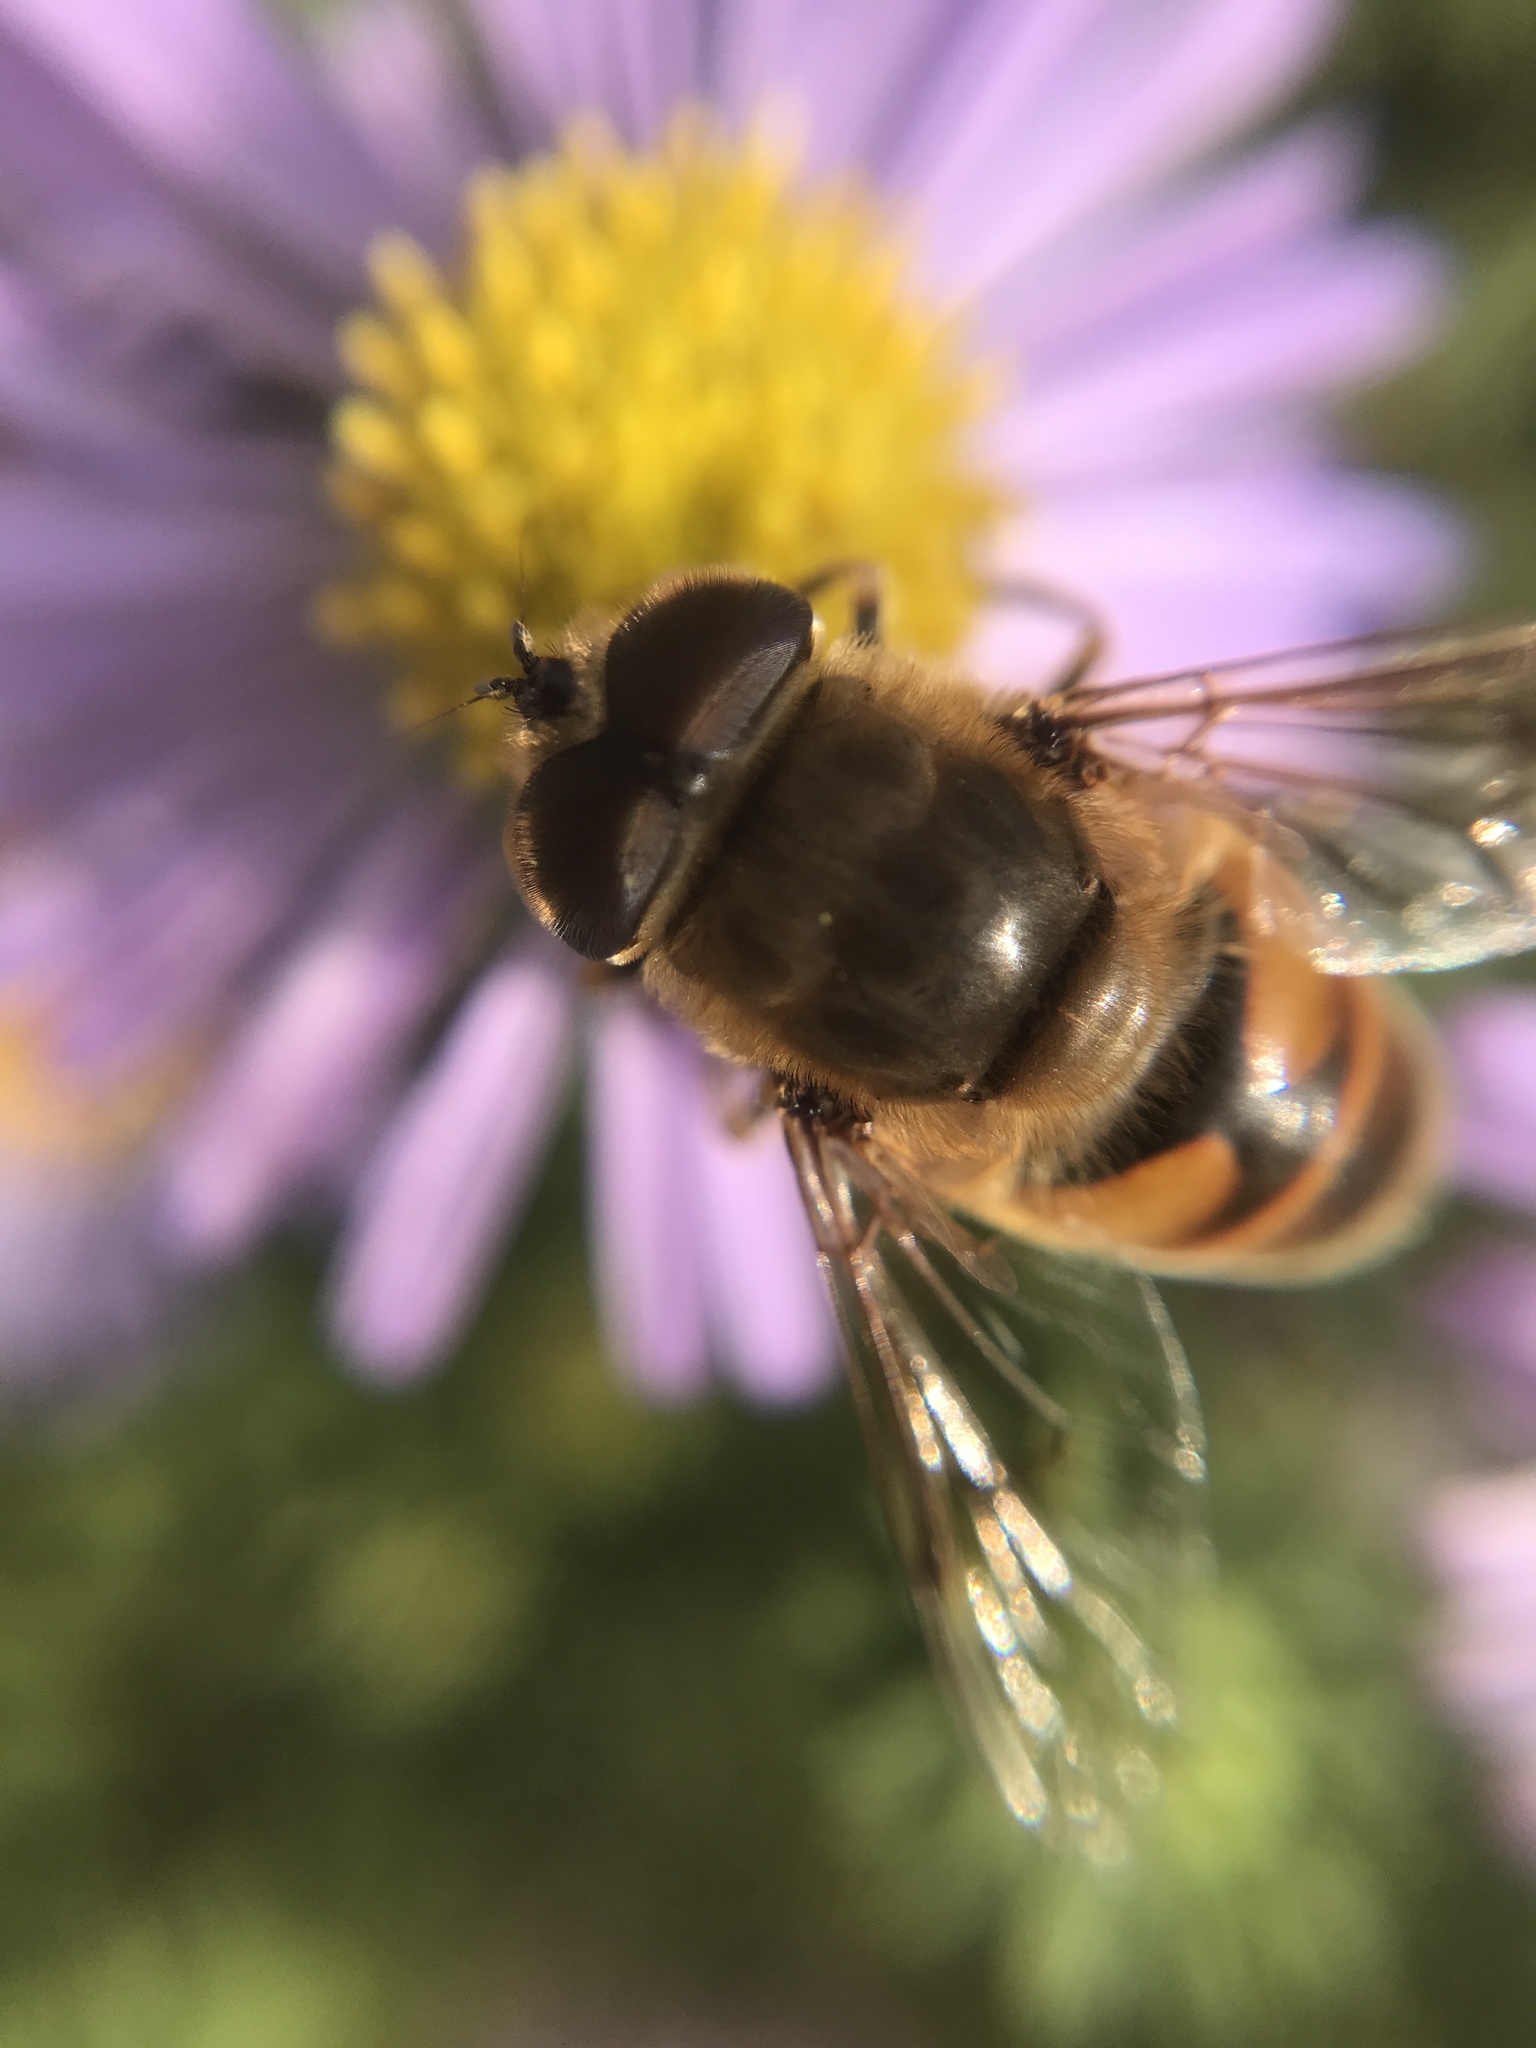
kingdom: Animalia
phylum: Arthropoda
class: Insecta
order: Diptera
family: Syrphidae
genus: Eristalis
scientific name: Eristalis tenax
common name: Drone fly
